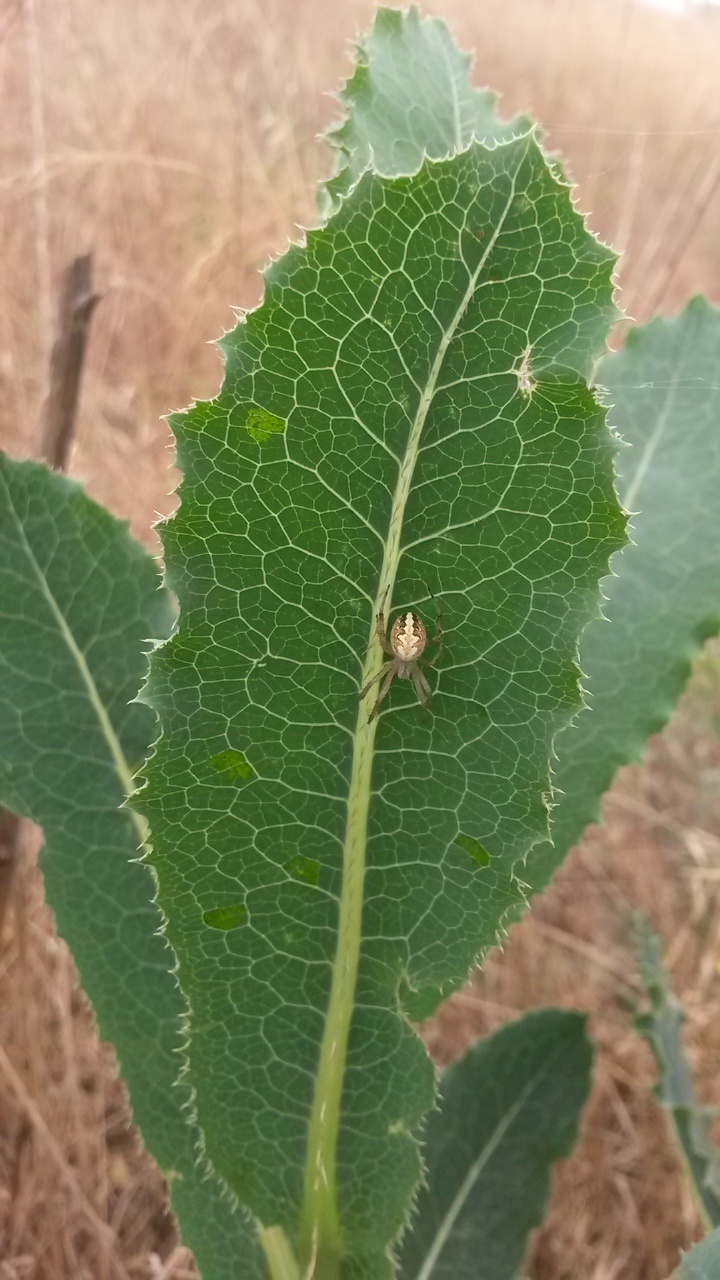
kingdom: Animalia
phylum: Arthropoda
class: Arachnida
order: Araneae
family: Araneidae
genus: Neoscona
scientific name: Neoscona oaxacensis
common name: Orb weavers
